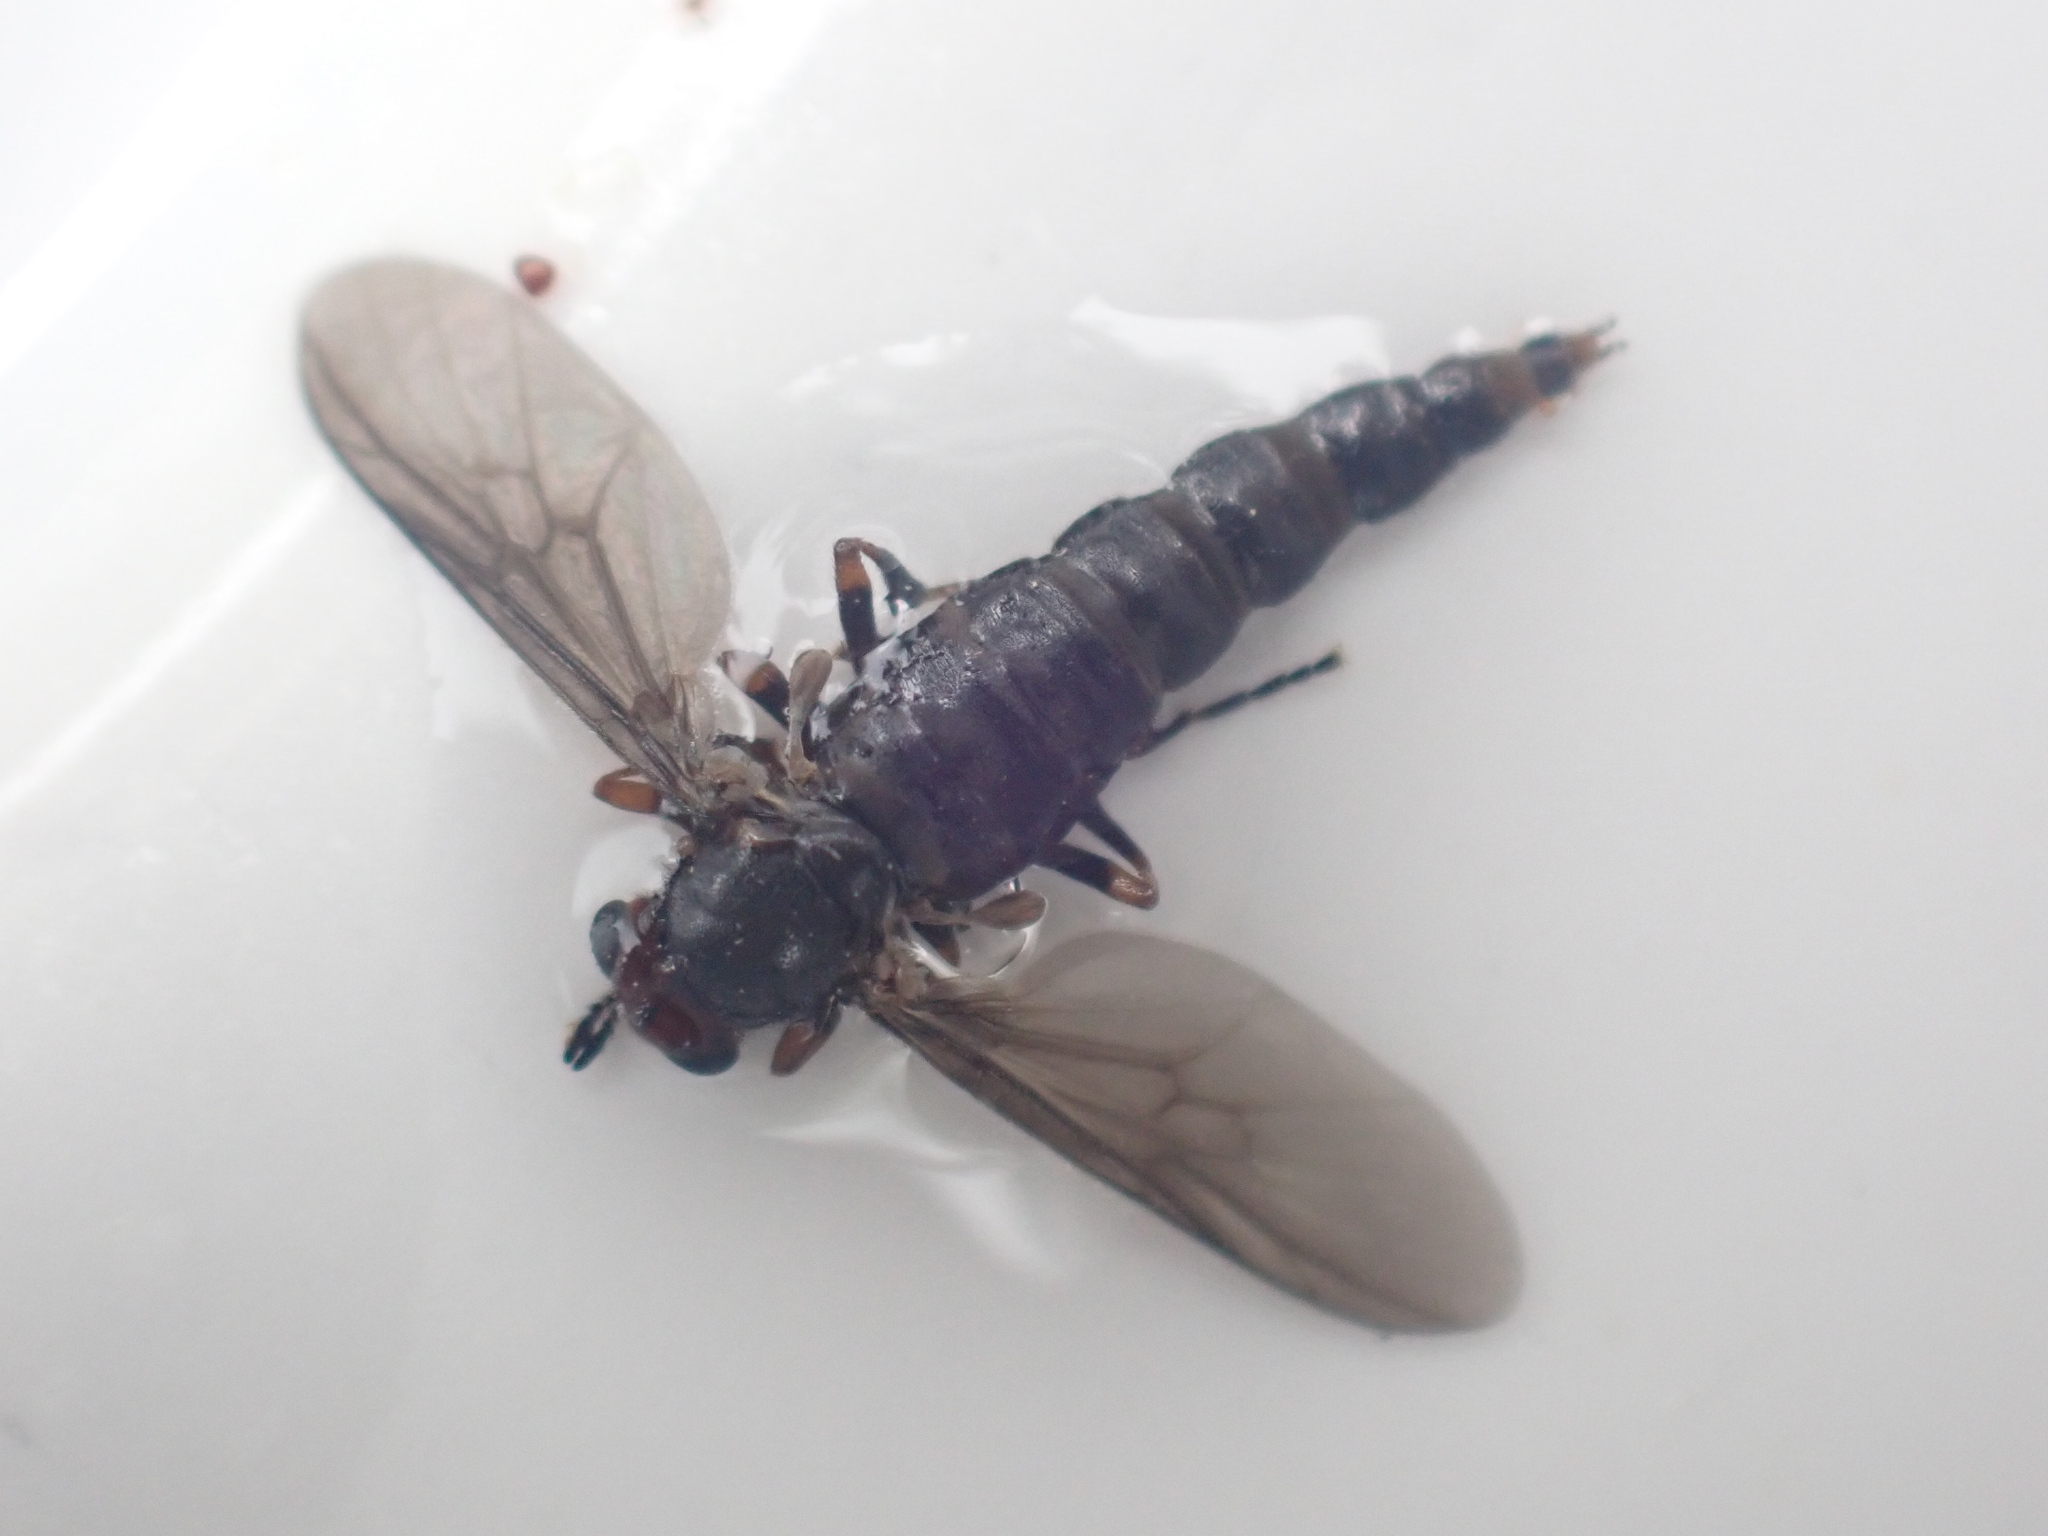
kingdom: Animalia
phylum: Arthropoda
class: Insecta
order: Diptera
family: Stratiomyidae
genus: Inopus
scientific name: Inopus rubriceps
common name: Soldier fly
